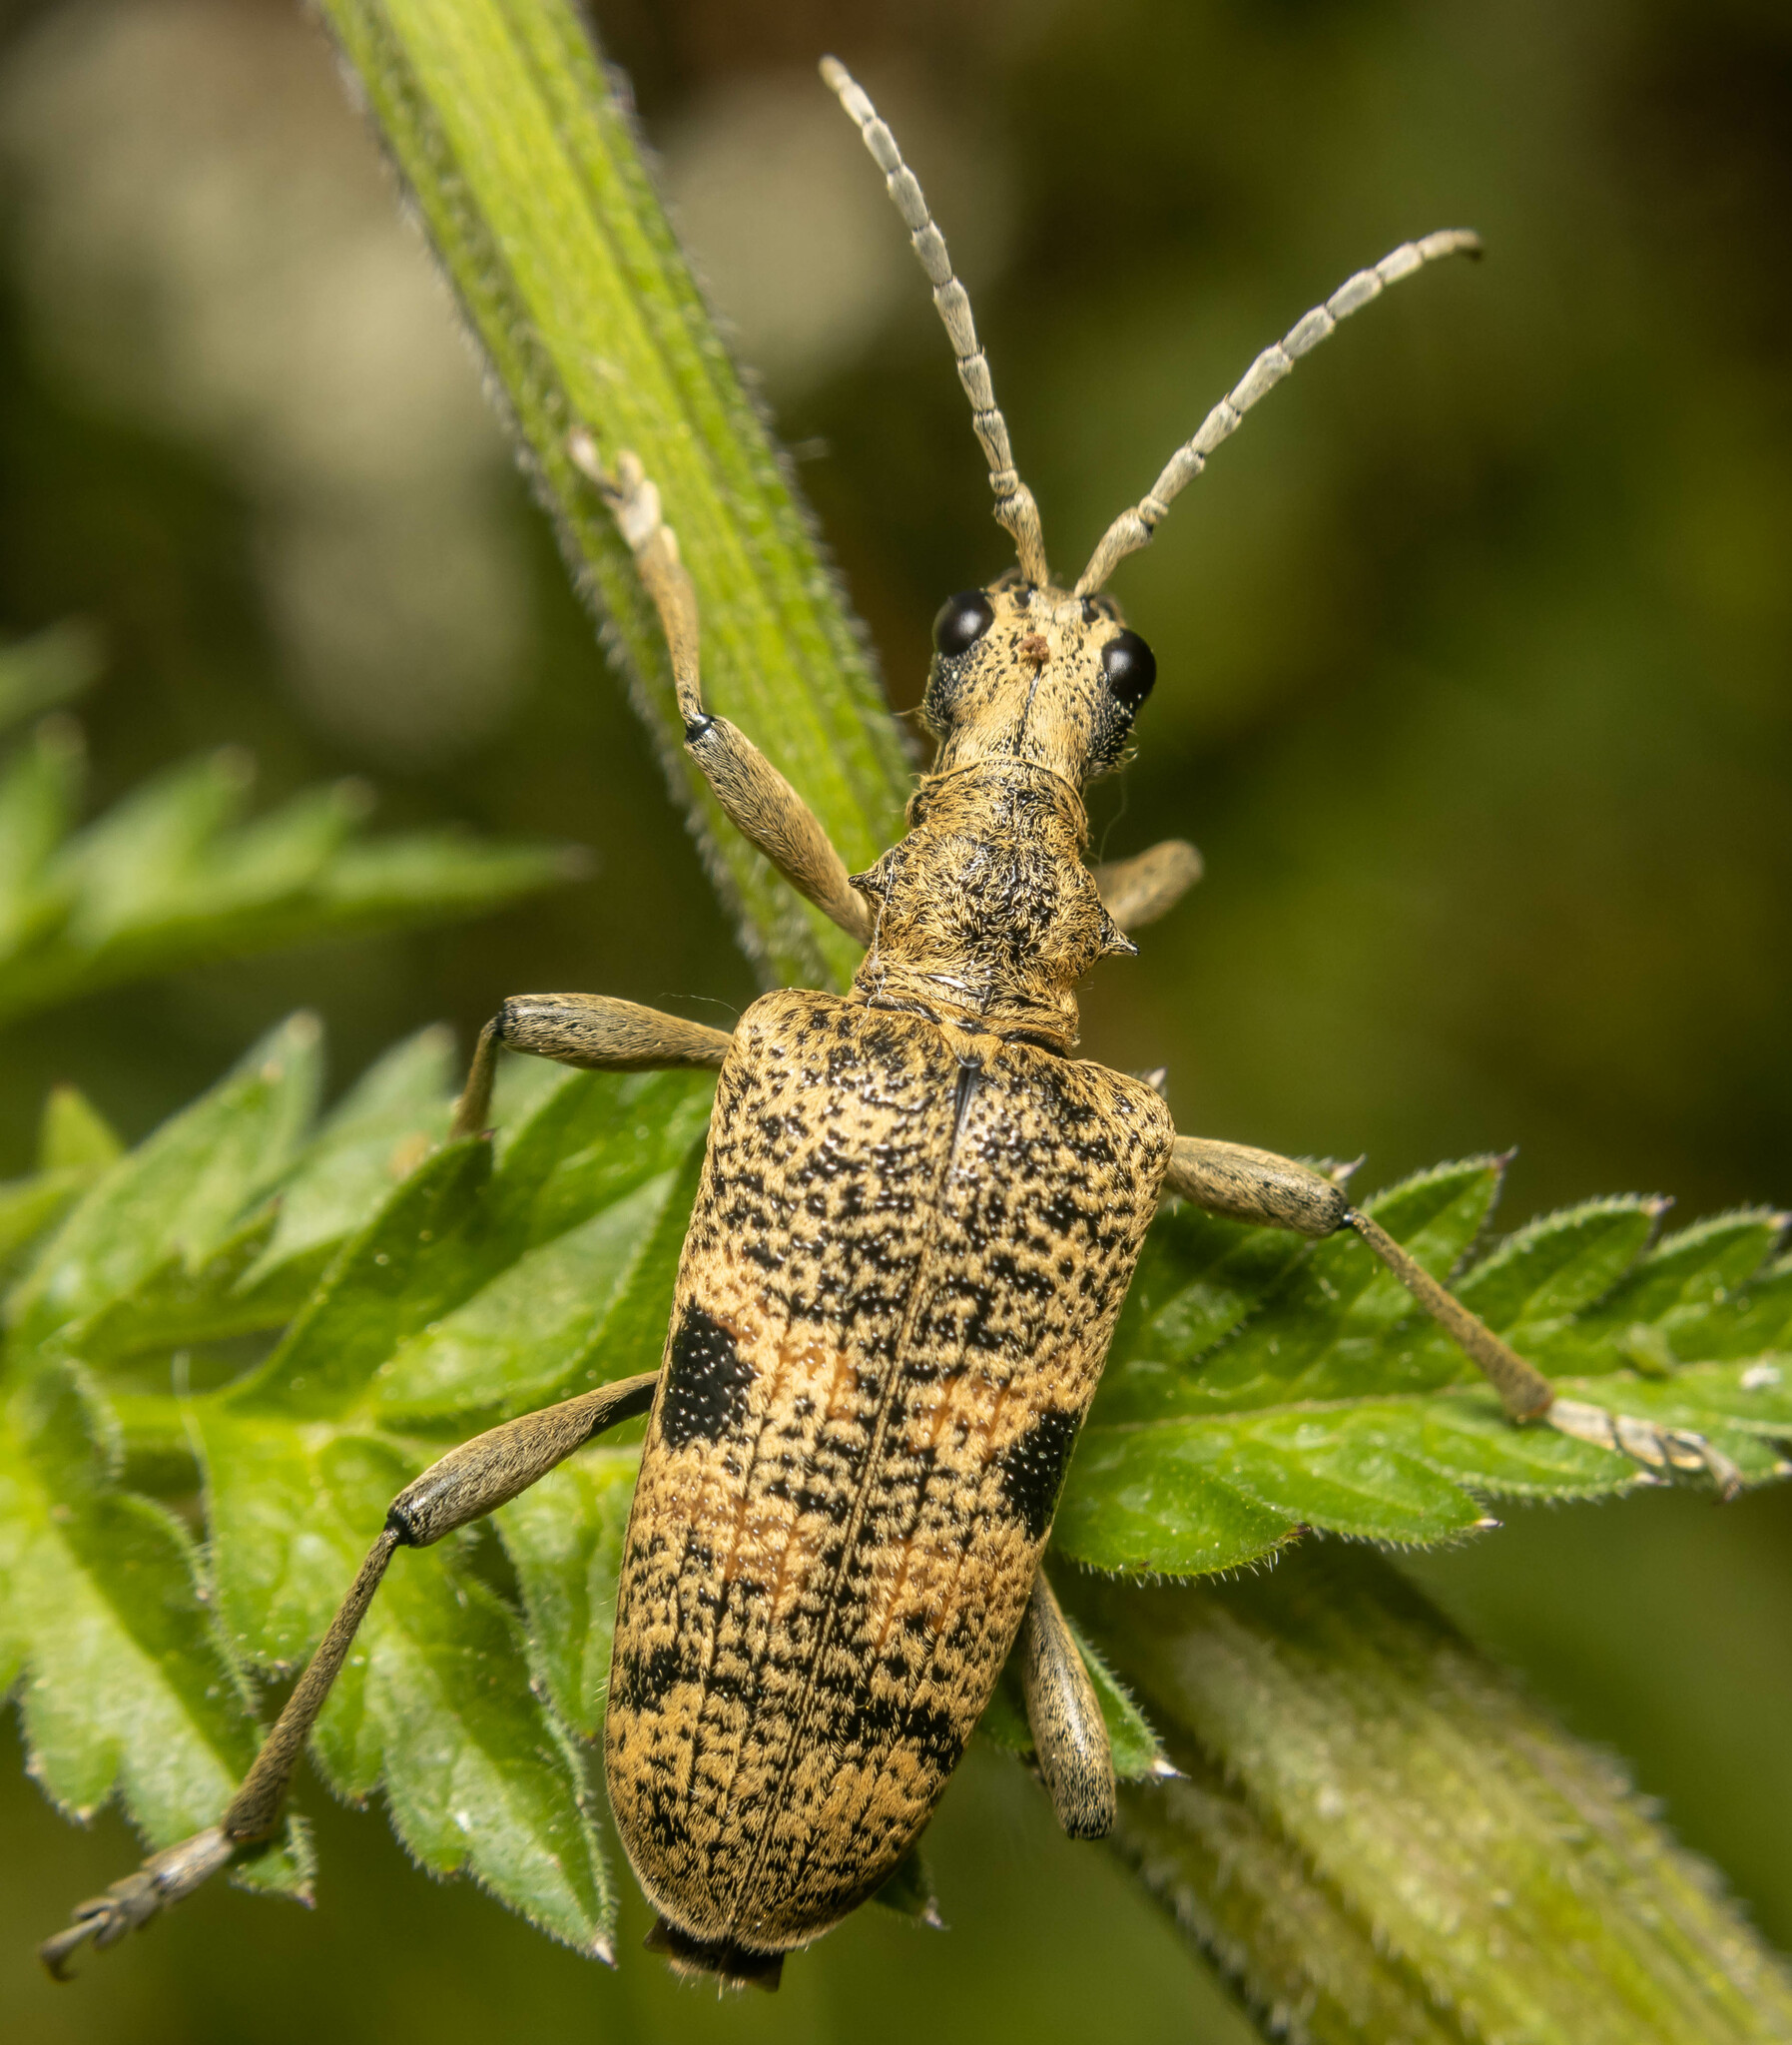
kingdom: Animalia
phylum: Arthropoda
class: Insecta
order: Coleoptera
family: Cerambycidae
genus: Rhagium
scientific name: Rhagium mordax
